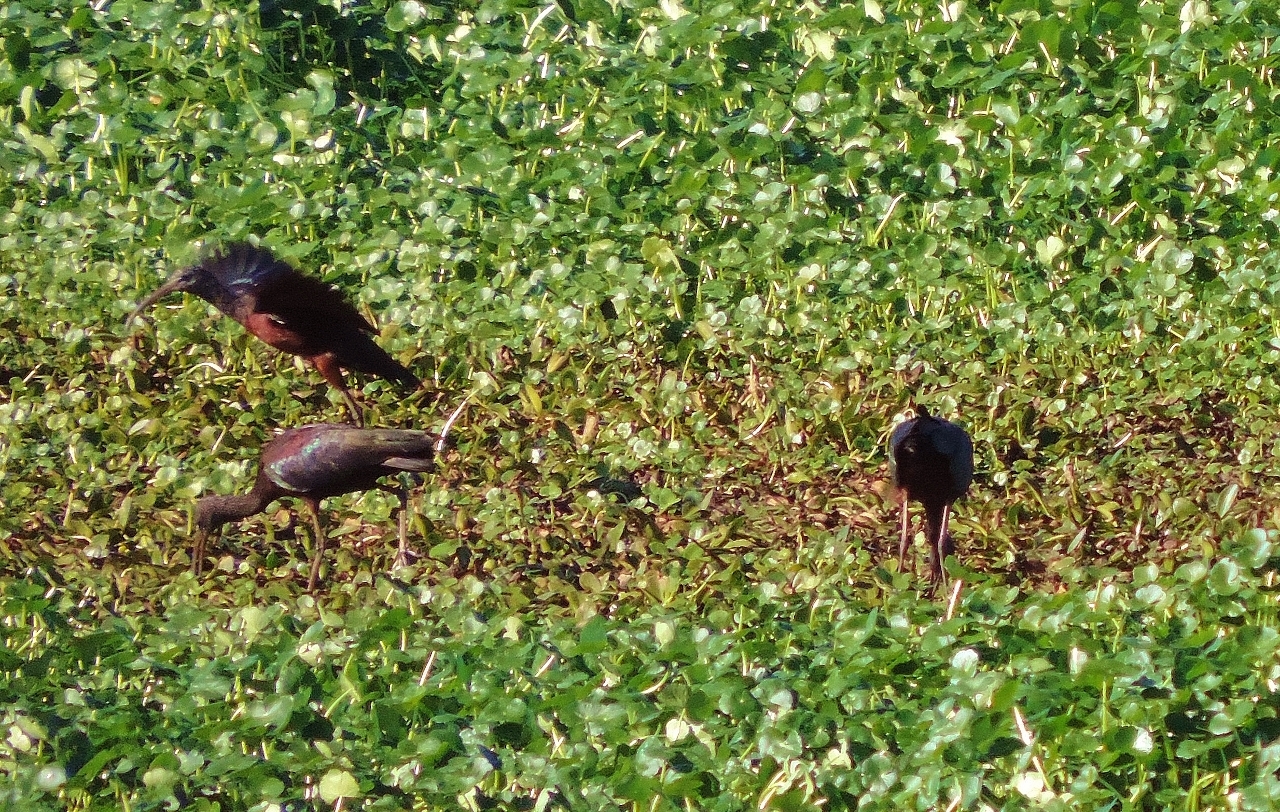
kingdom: Animalia
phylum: Chordata
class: Aves
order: Pelecaniformes
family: Threskiornithidae
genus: Plegadis
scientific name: Plegadis falcinellus
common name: Glossy ibis
